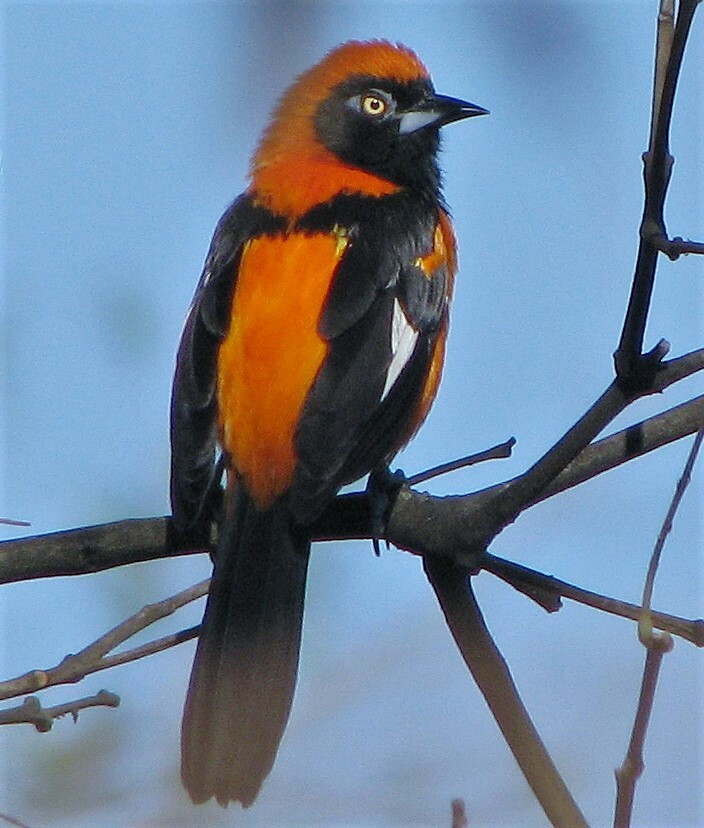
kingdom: Animalia
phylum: Chordata
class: Aves
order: Passeriformes
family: Icteridae
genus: Icterus
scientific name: Icterus icterus
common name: Venezuelan troupial
